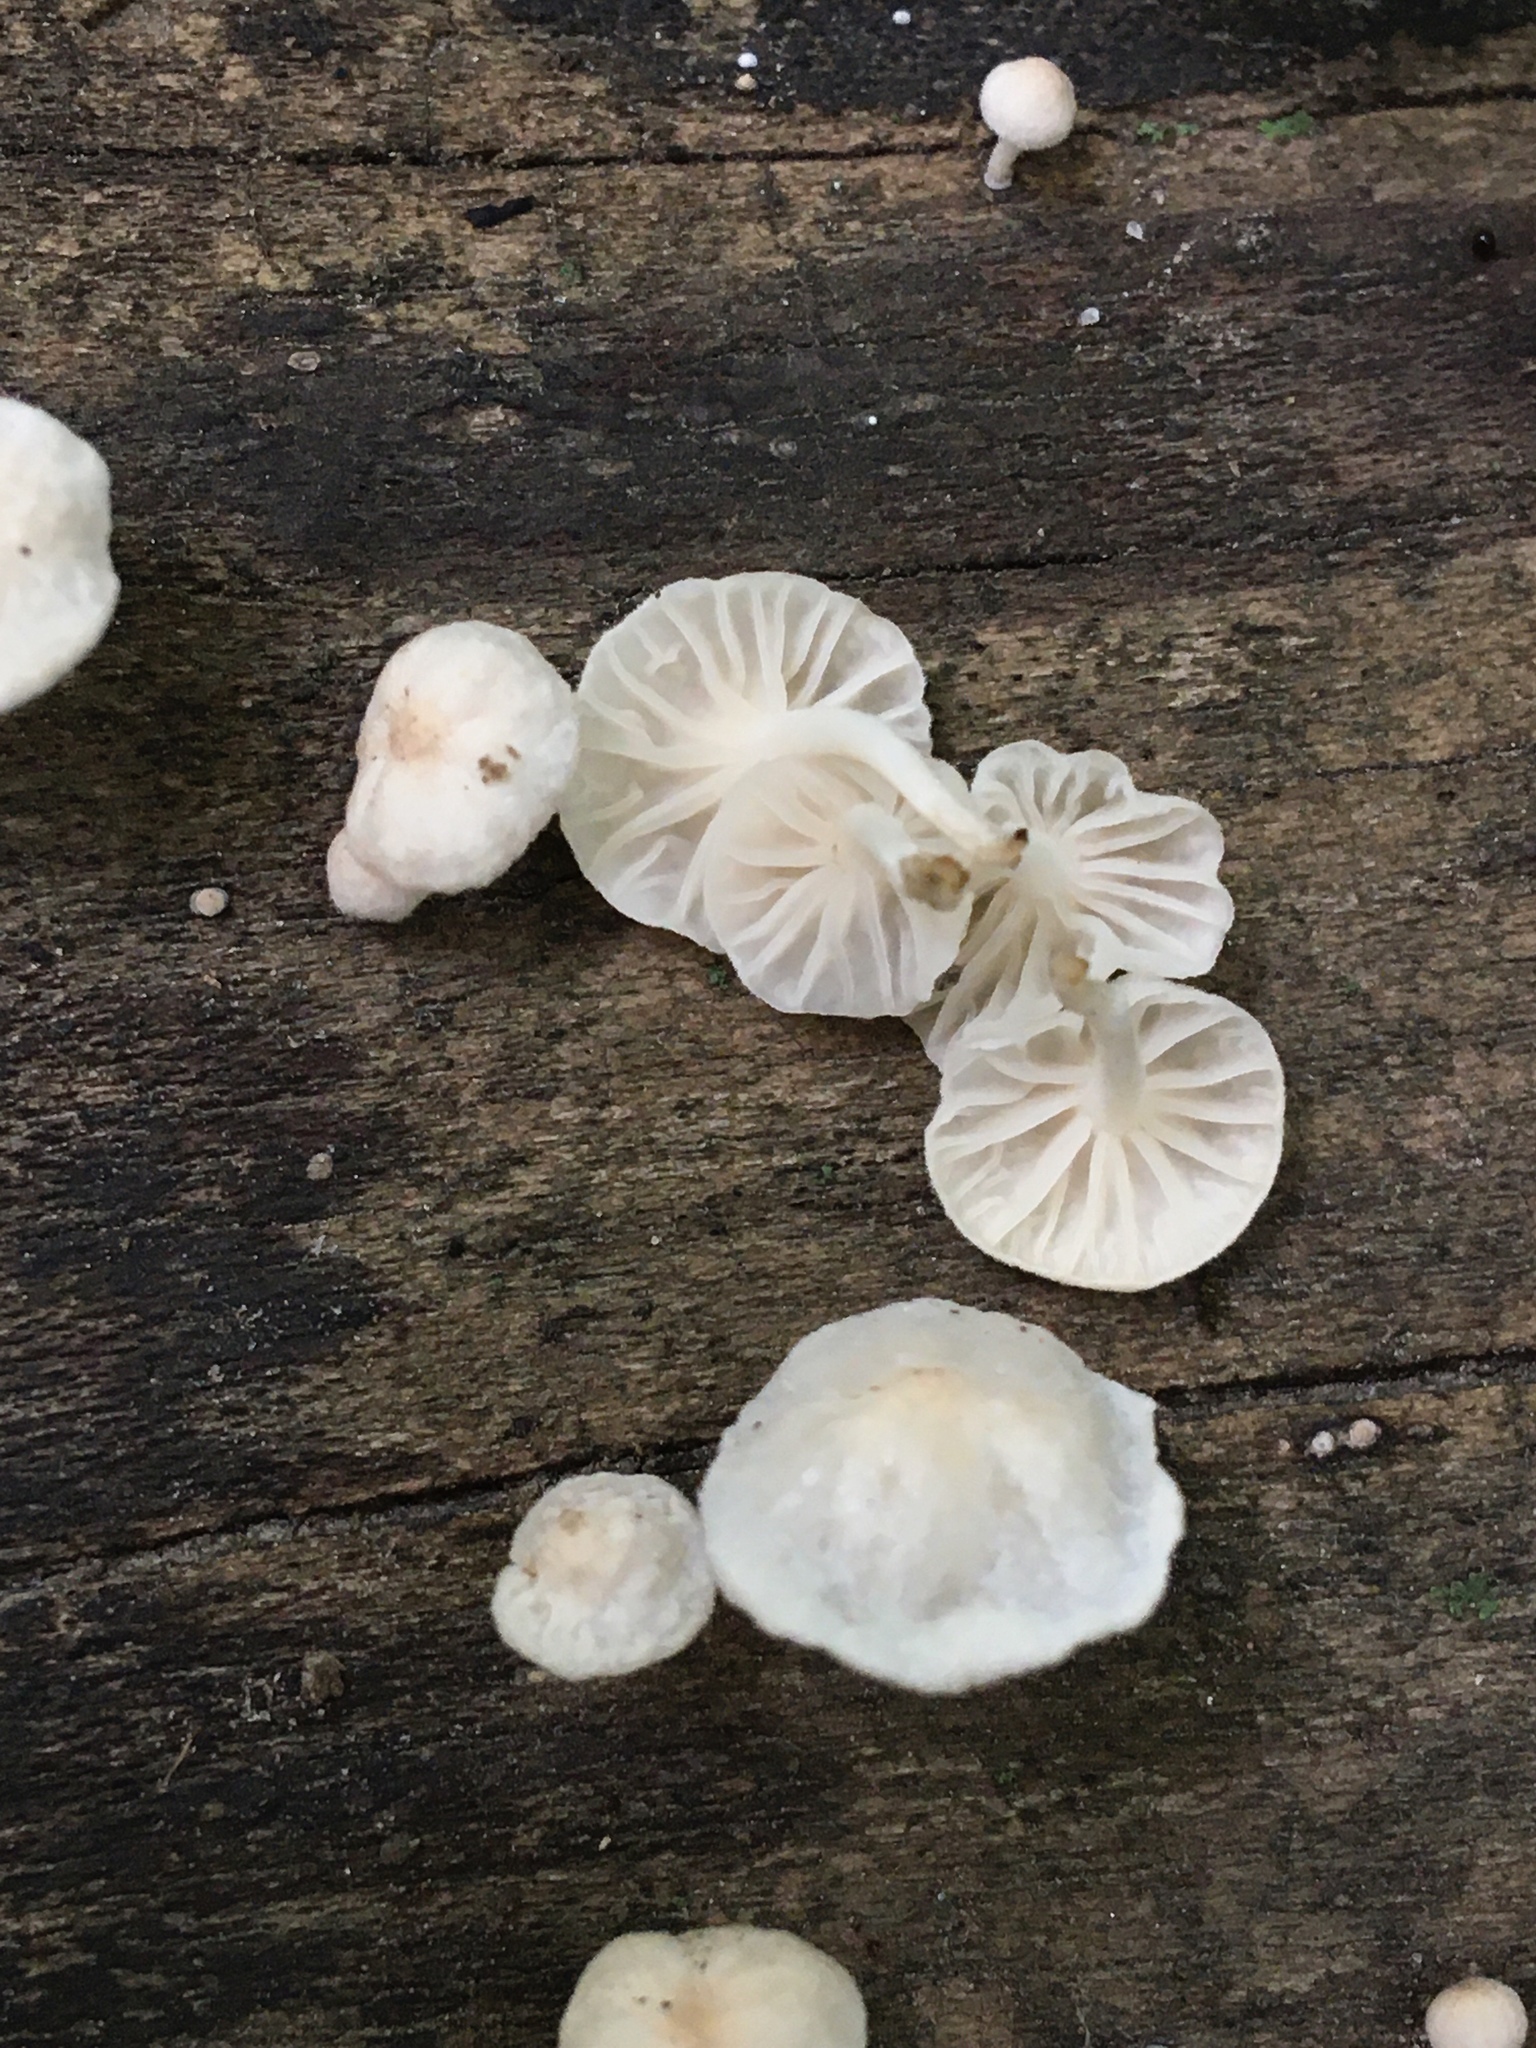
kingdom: Fungi
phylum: Basidiomycota
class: Agaricomycetes
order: Agaricales
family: Omphalotaceae
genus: Marasmiellus
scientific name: Marasmiellus candidus
